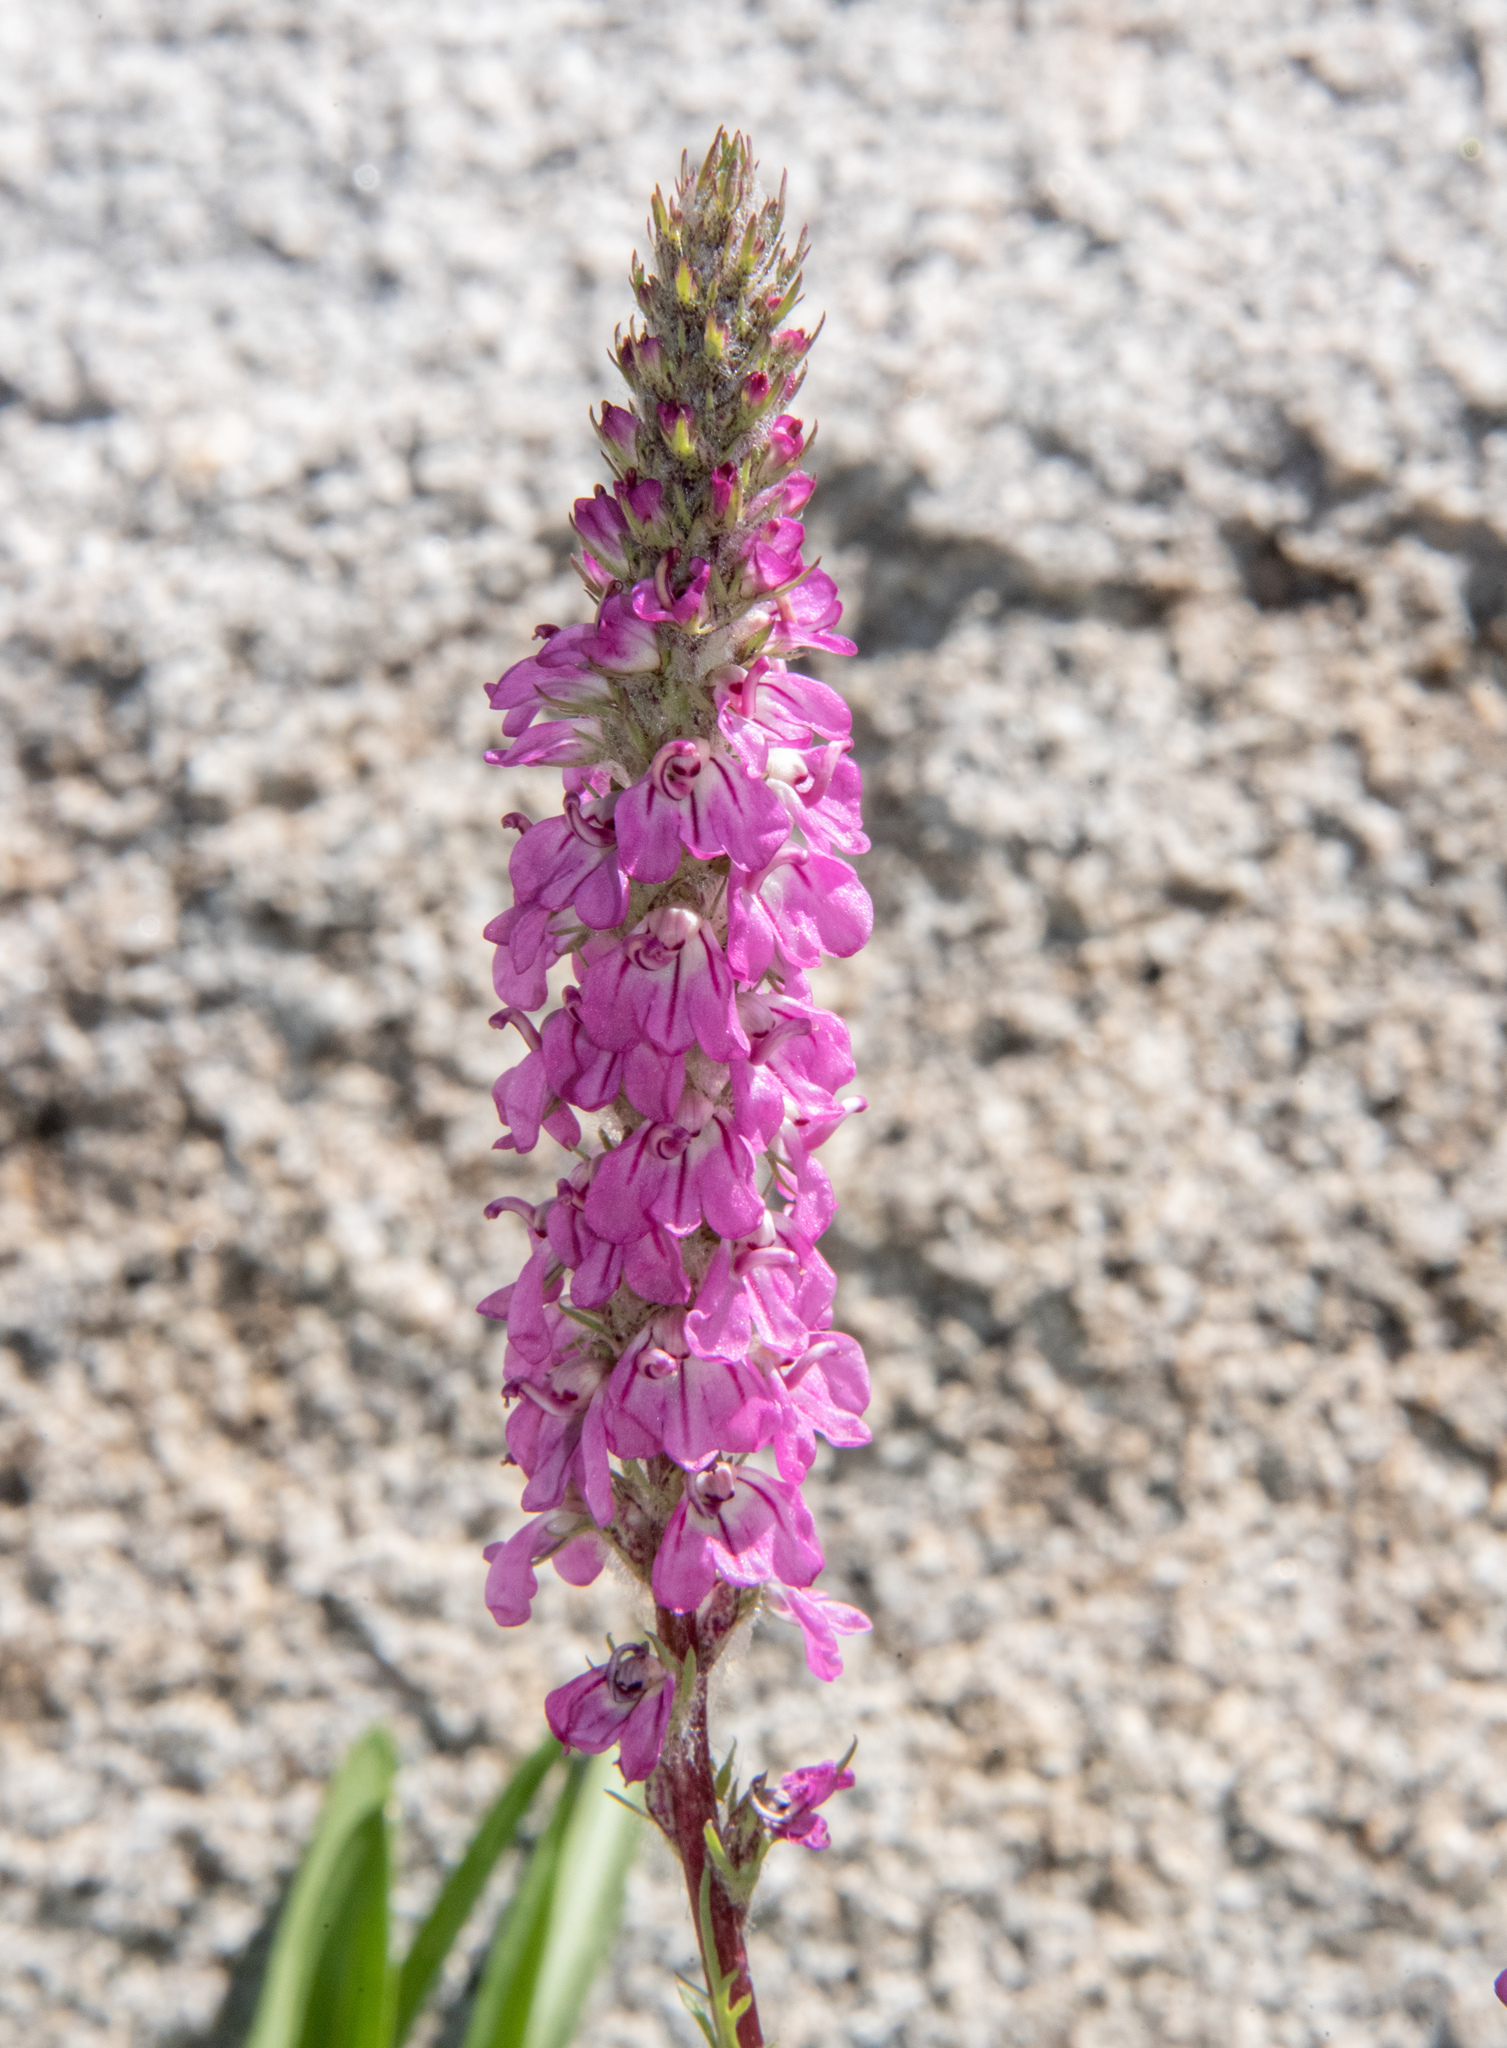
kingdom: Plantae
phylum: Tracheophyta
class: Magnoliopsida
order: Lamiales
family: Orobanchaceae
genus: Pedicularis
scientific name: Pedicularis attollens
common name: Slender pedicularis
